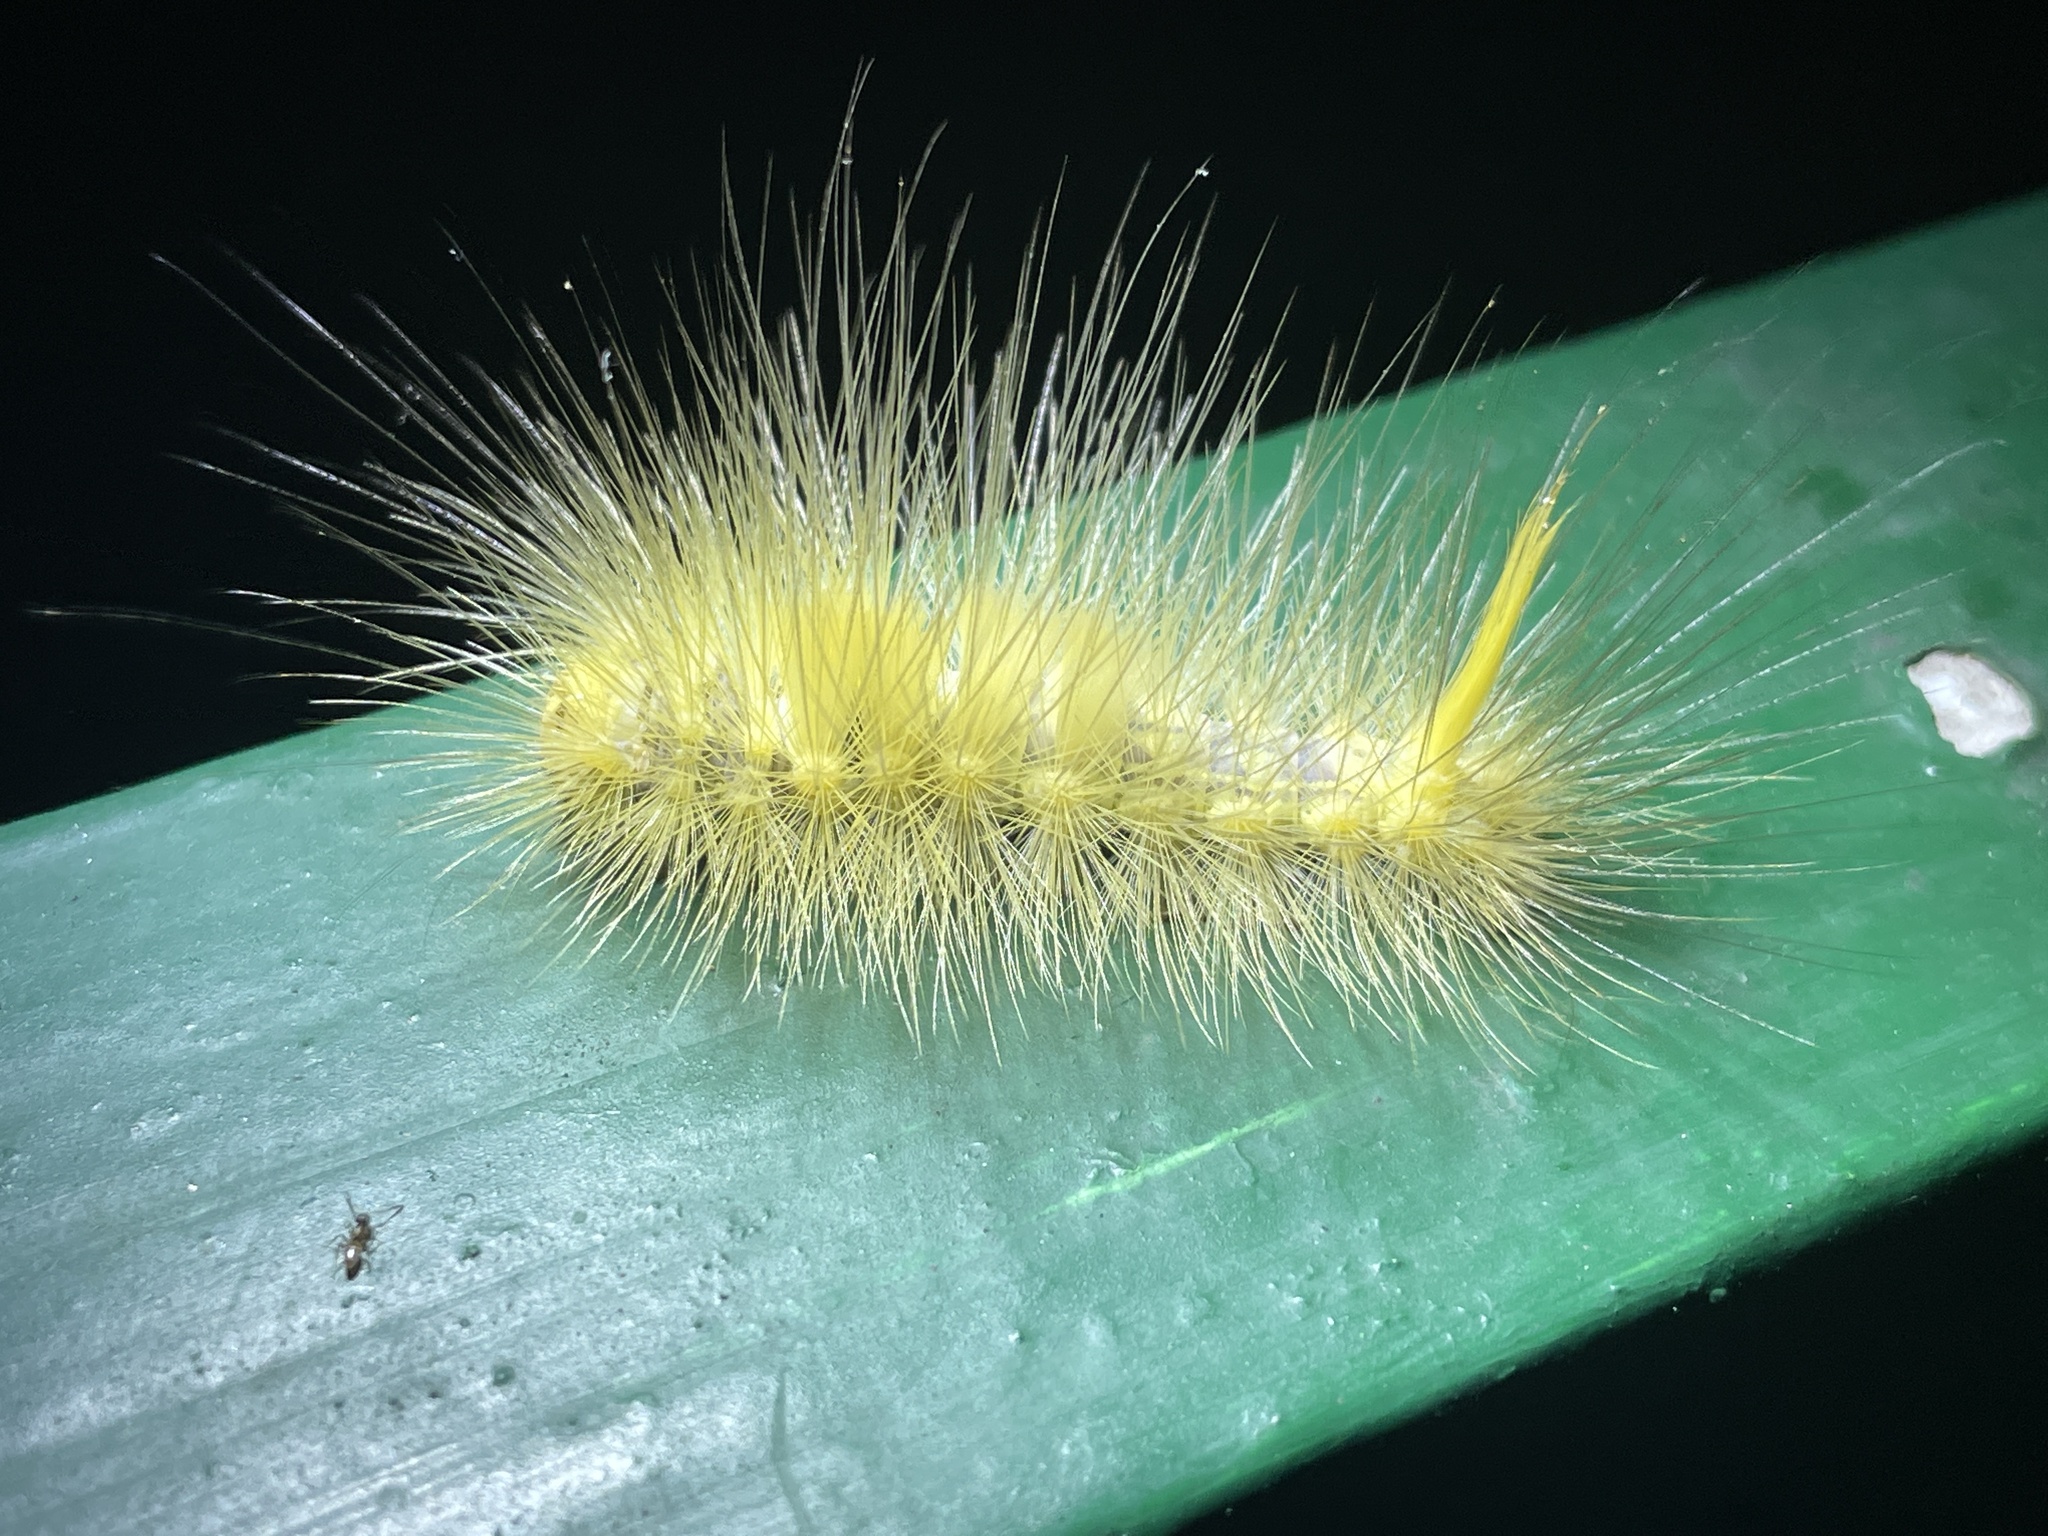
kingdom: Animalia
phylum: Arthropoda
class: Insecta
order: Lepidoptera
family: Erebidae
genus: Calliteara
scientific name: Calliteara grotei
